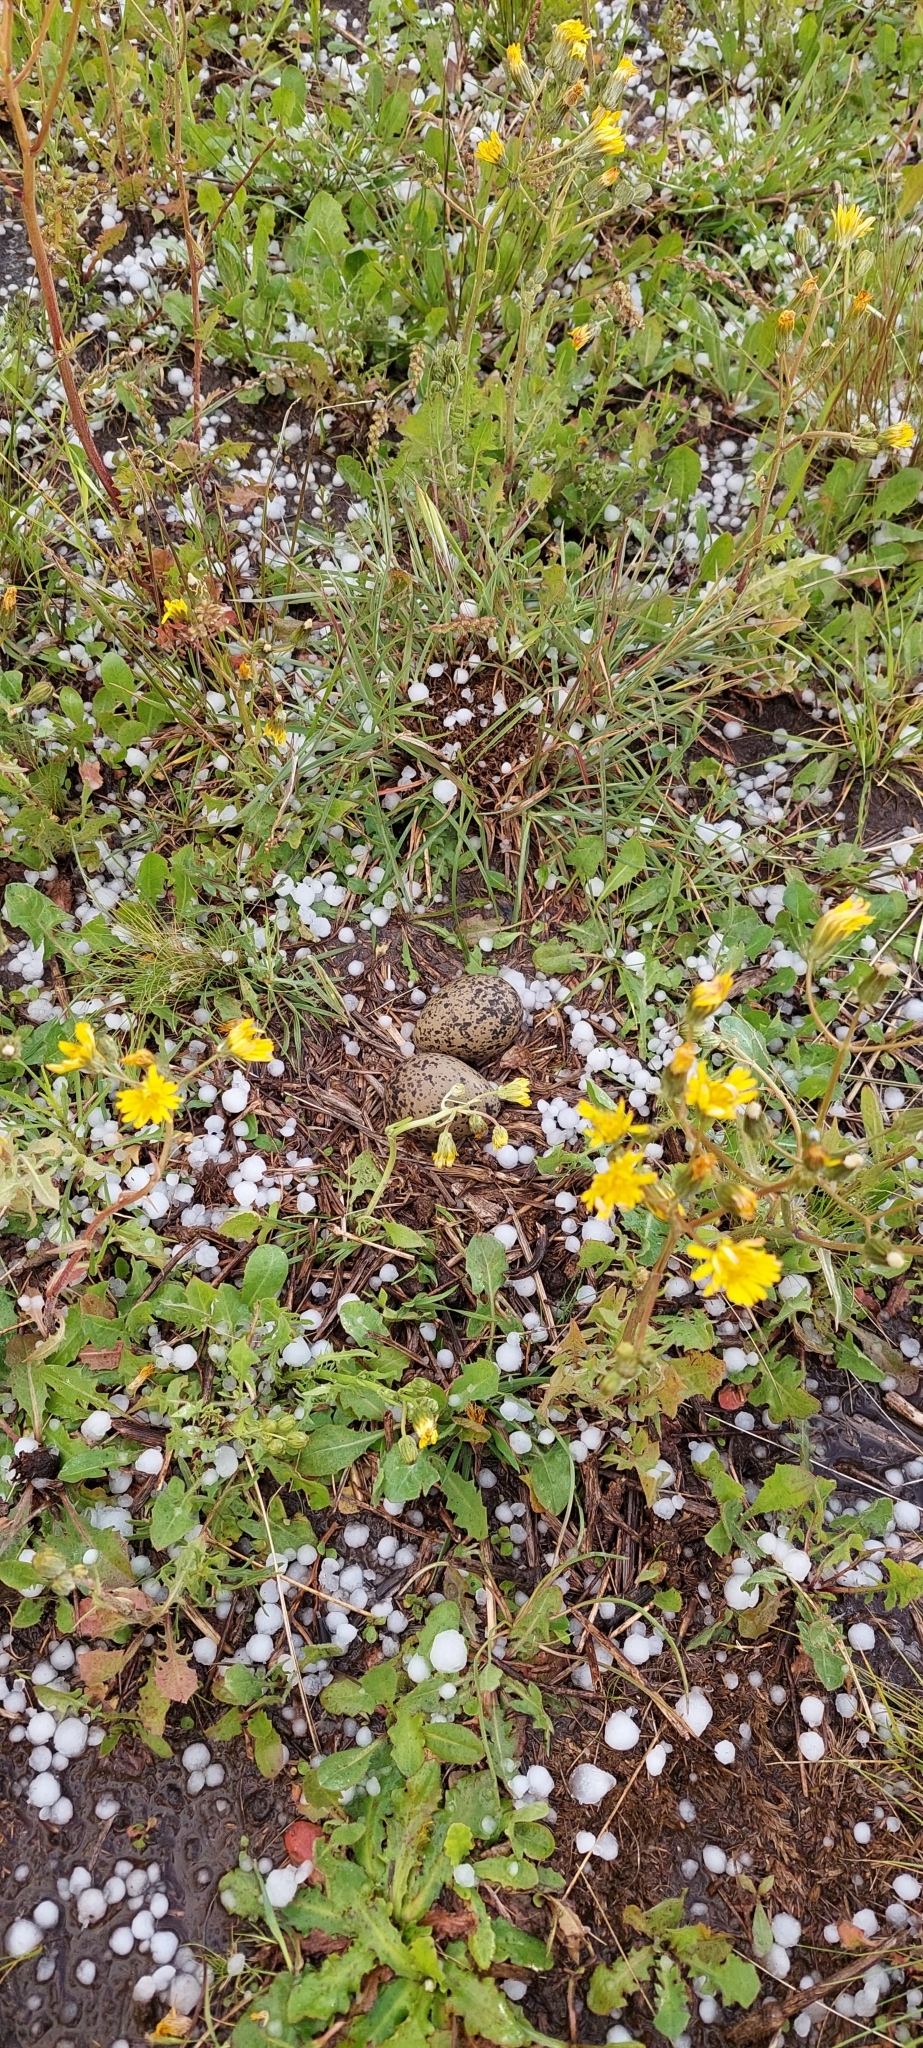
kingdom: Animalia
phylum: Chordata
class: Aves
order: Charadriiformes
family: Charadriidae
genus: Vanellus
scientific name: Vanellus chilensis
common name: Southern lapwing
